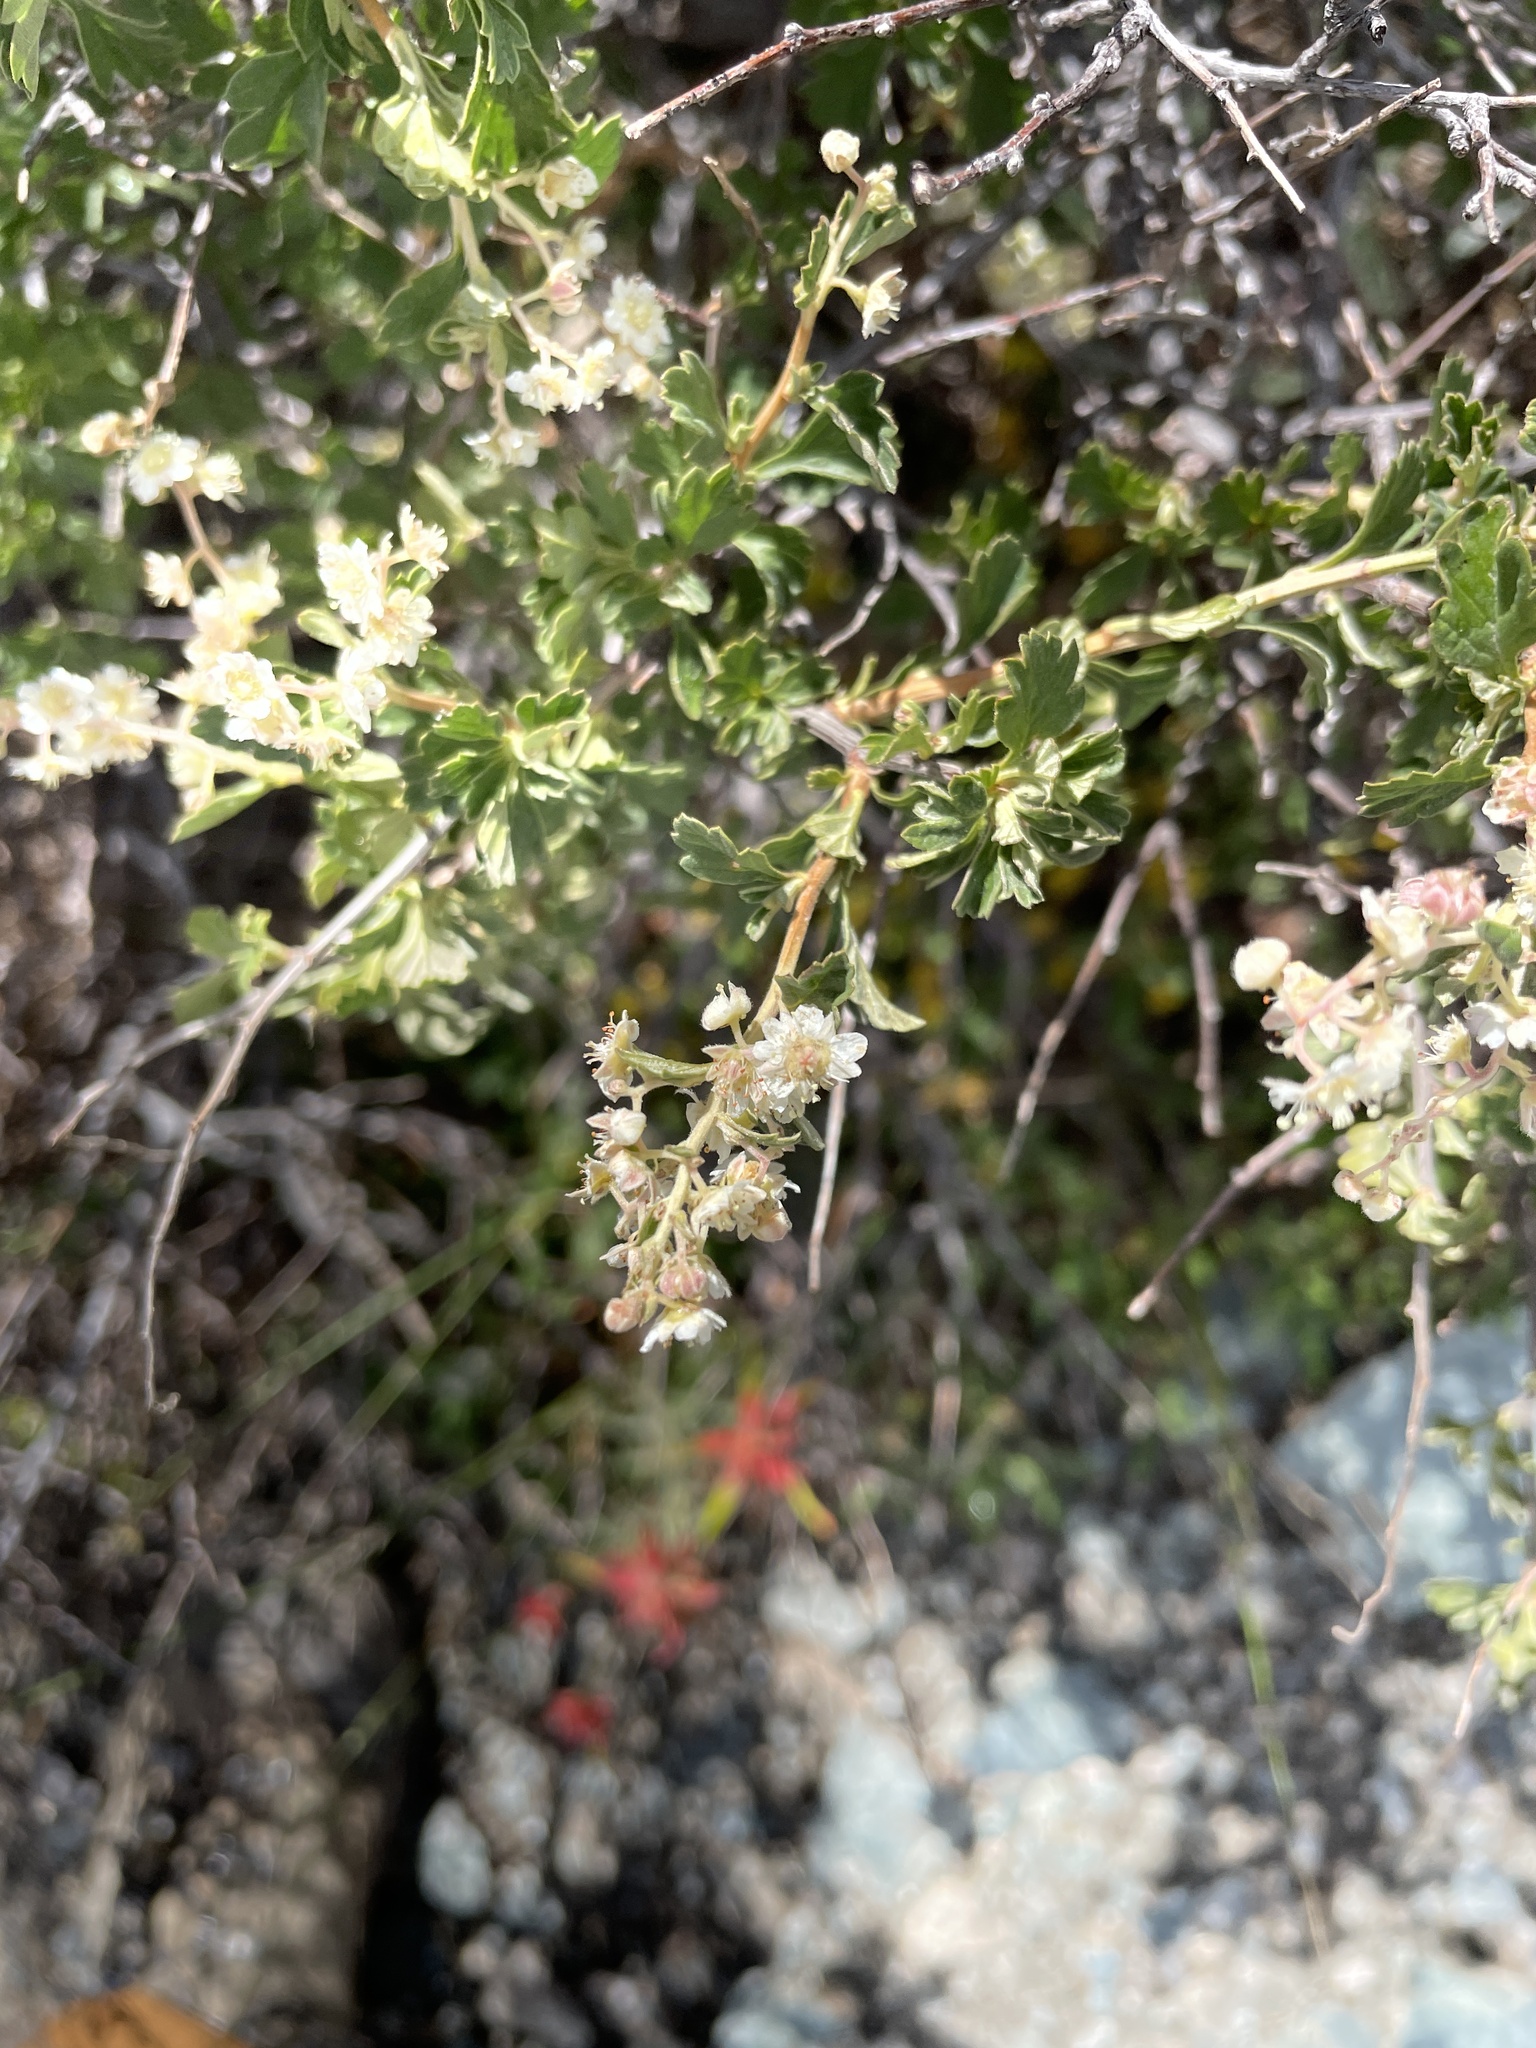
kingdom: Plantae
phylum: Tracheophyta
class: Magnoliopsida
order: Rosales
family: Rosaceae
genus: Holodiscus
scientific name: Holodiscus discolor
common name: Oceanspray
